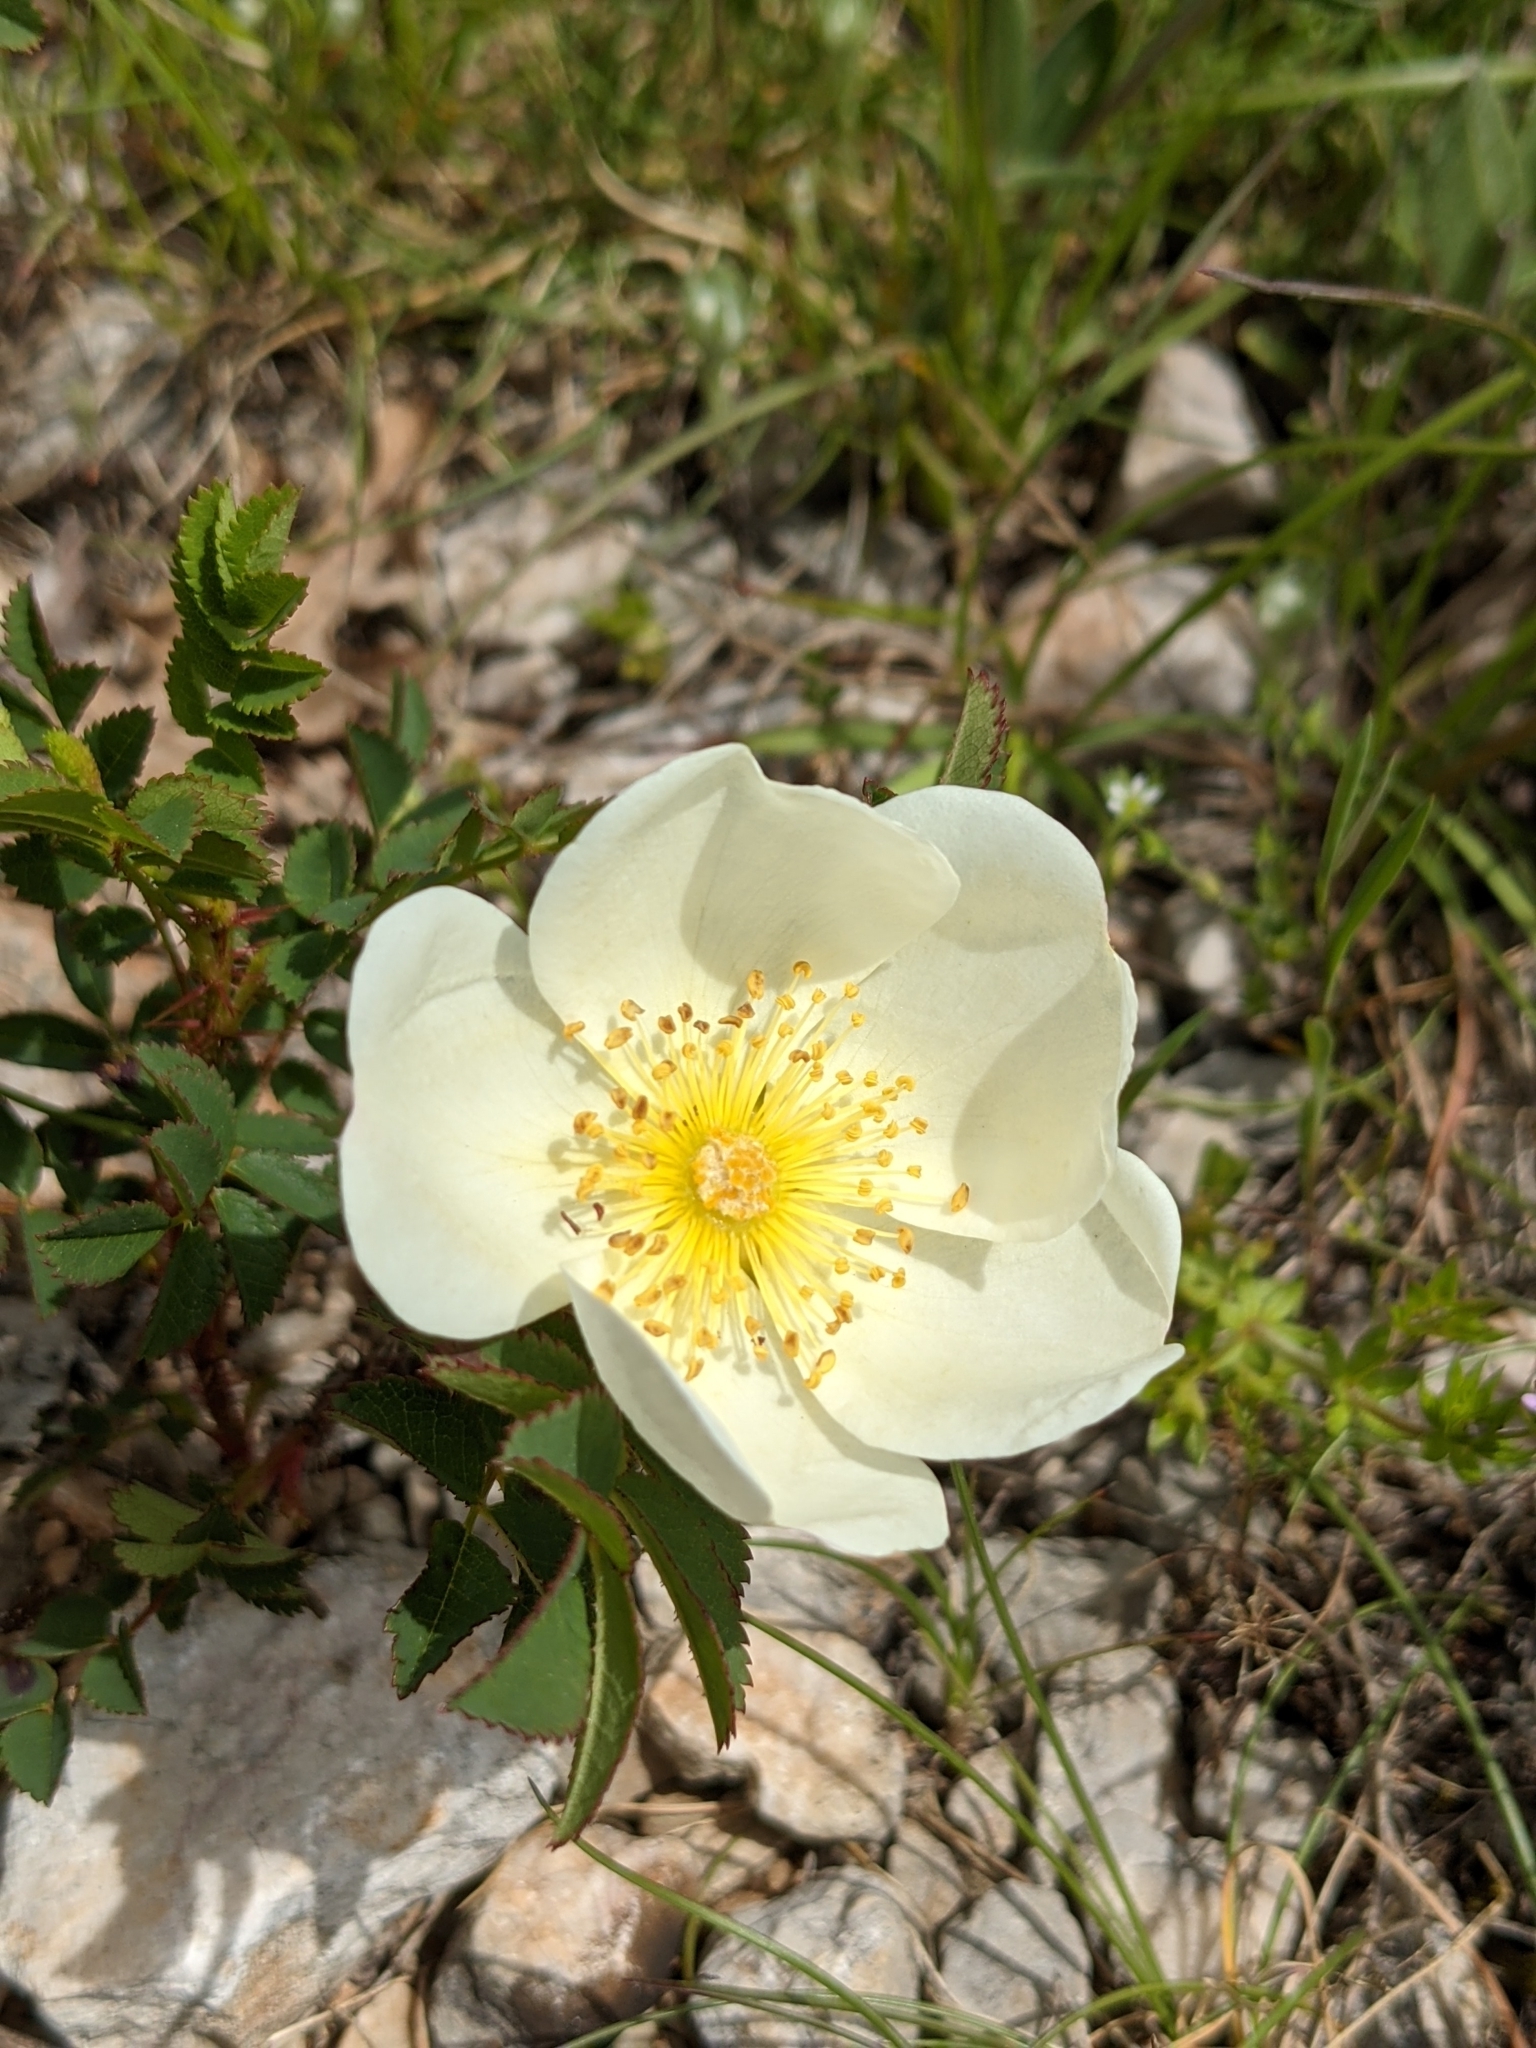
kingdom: Plantae
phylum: Tracheophyta
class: Magnoliopsida
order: Rosales
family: Rosaceae
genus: Rosa
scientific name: Rosa spinosissima
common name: Burnet rose
